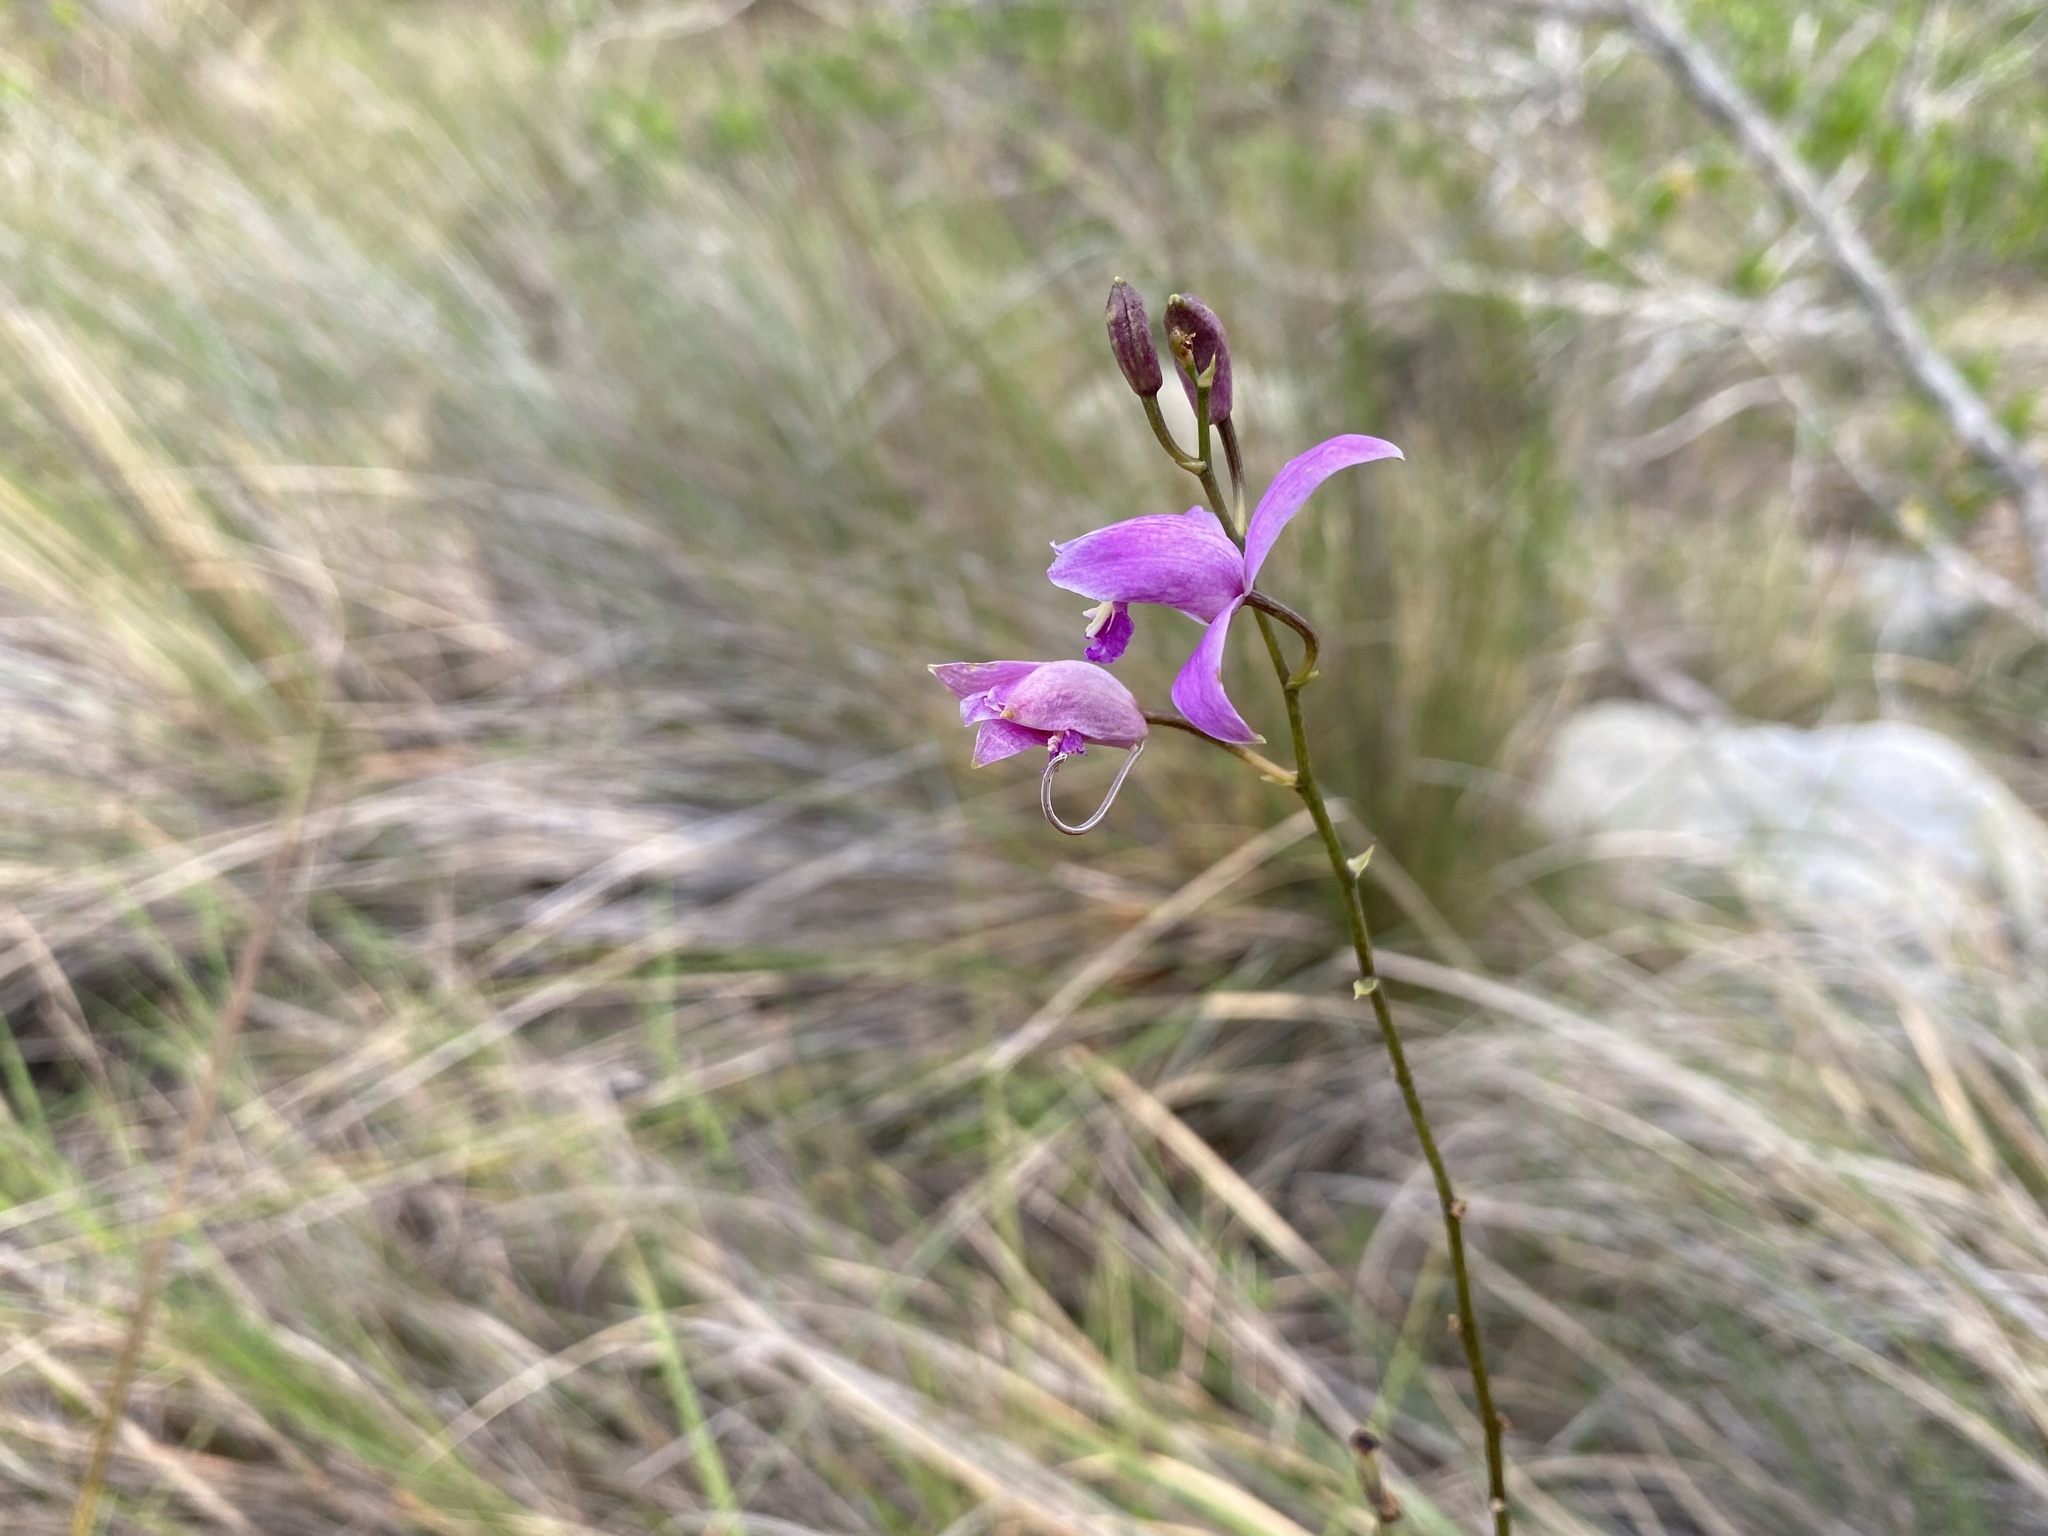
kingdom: Plantae
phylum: Tracheophyta
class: Liliopsida
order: Asparagales
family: Orchidaceae
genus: Bletia
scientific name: Bletia purpurea
